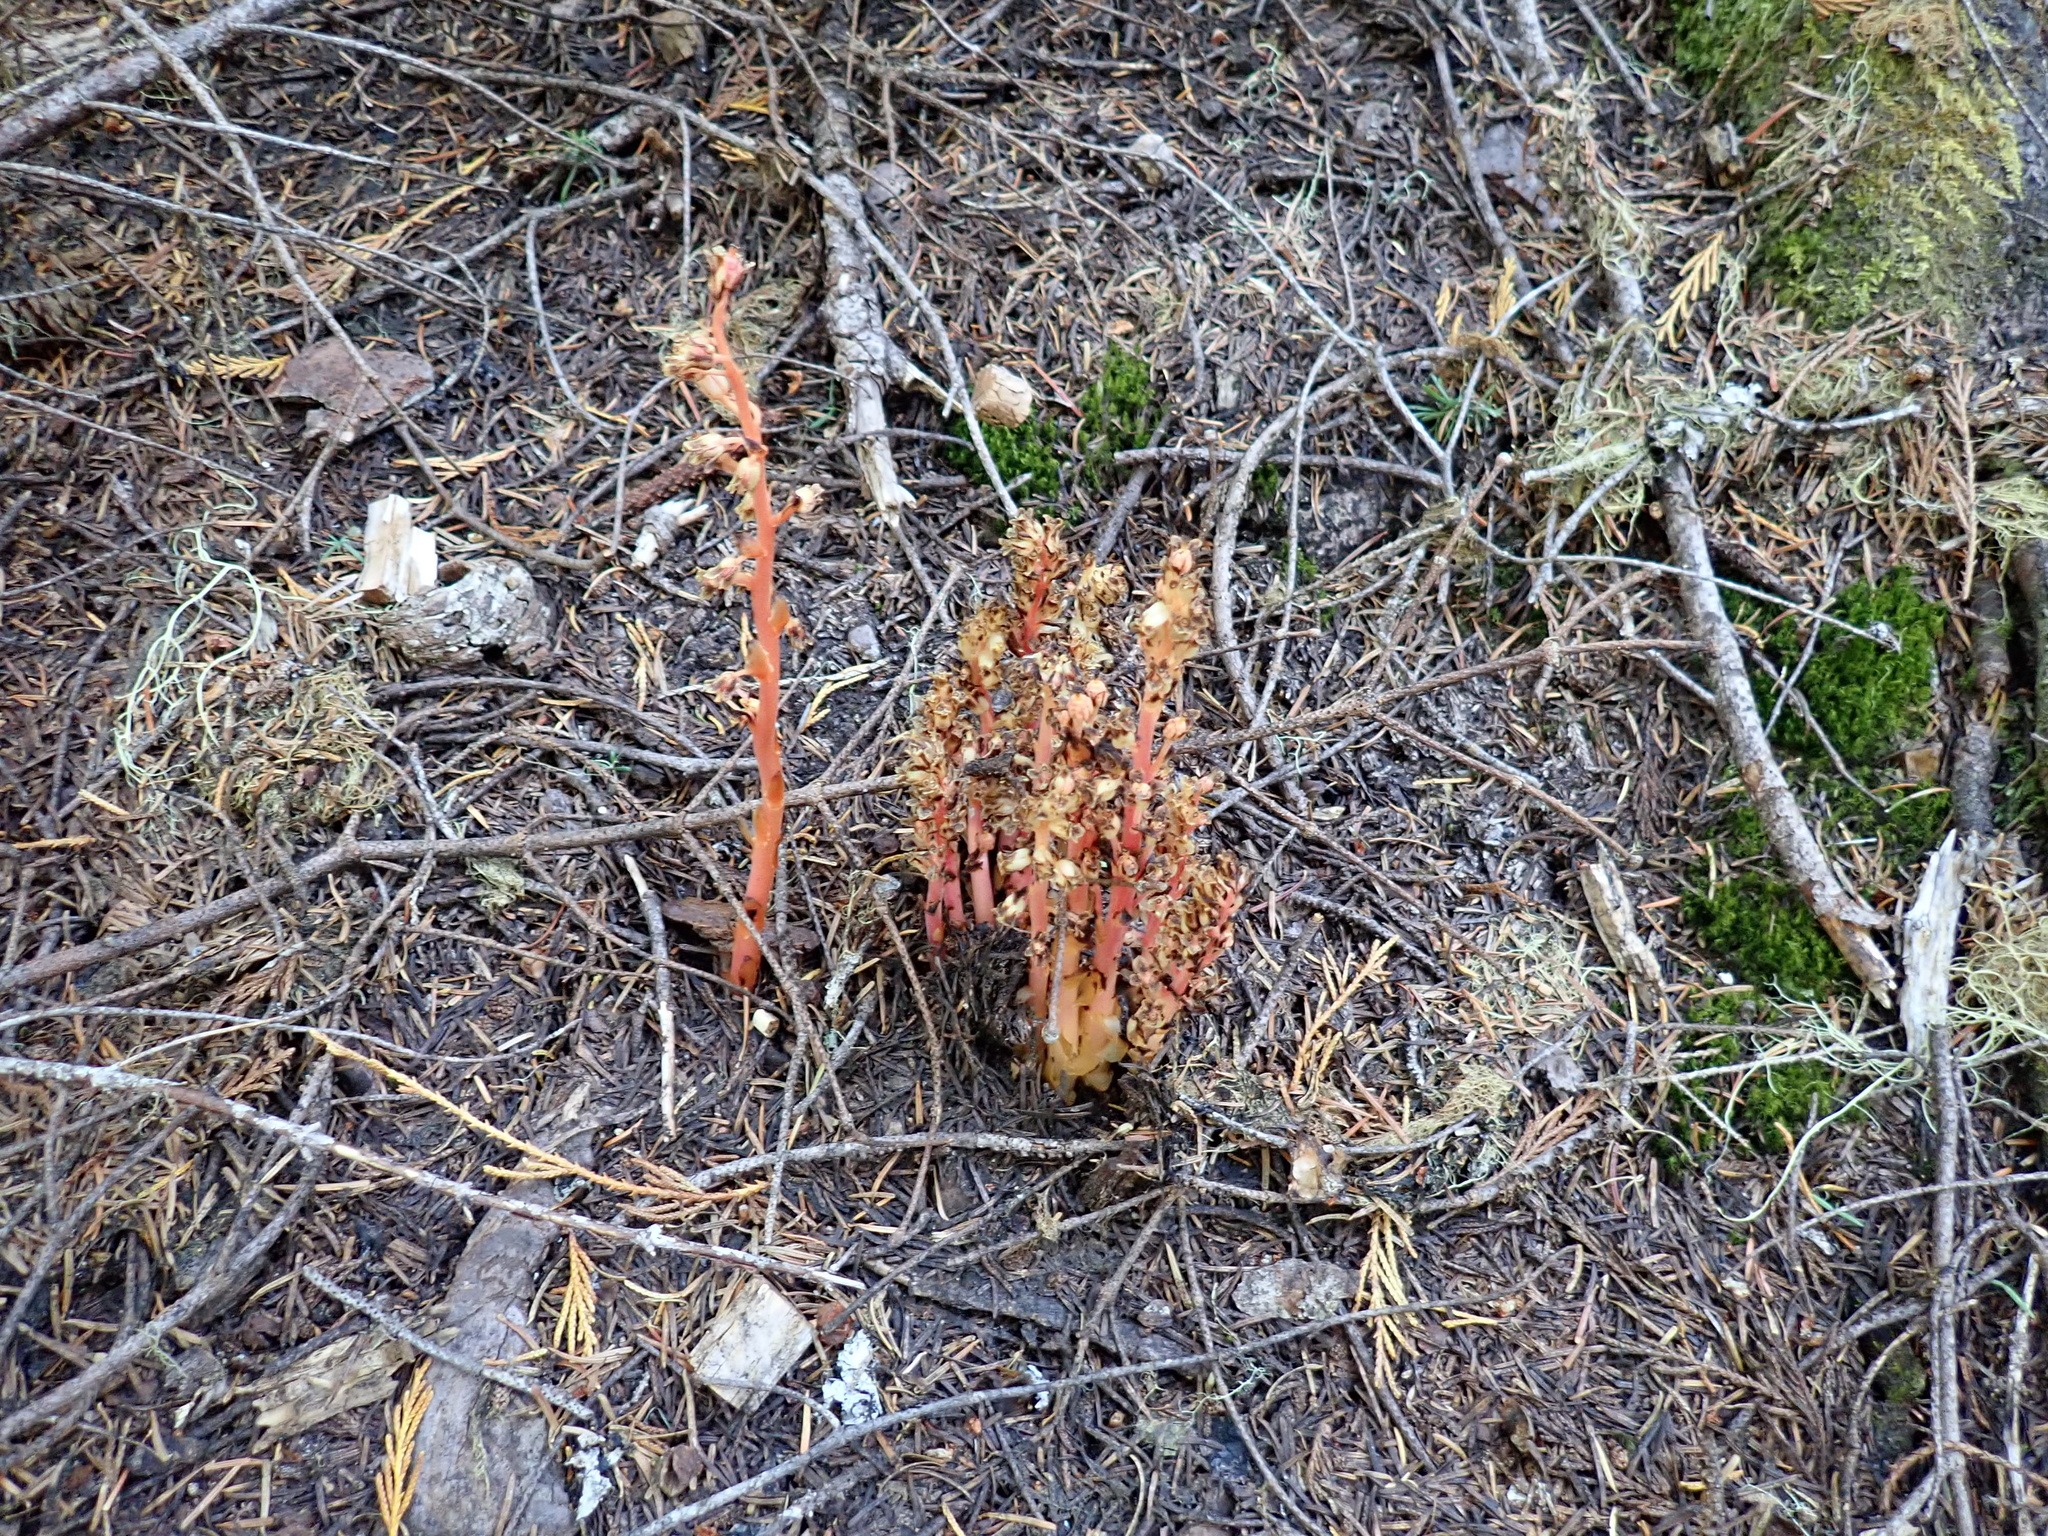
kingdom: Plantae
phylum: Tracheophyta
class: Magnoliopsida
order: Ericales
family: Ericaceae
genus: Hypopitys
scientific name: Hypopitys monotropa
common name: Yellow bird's-nest
